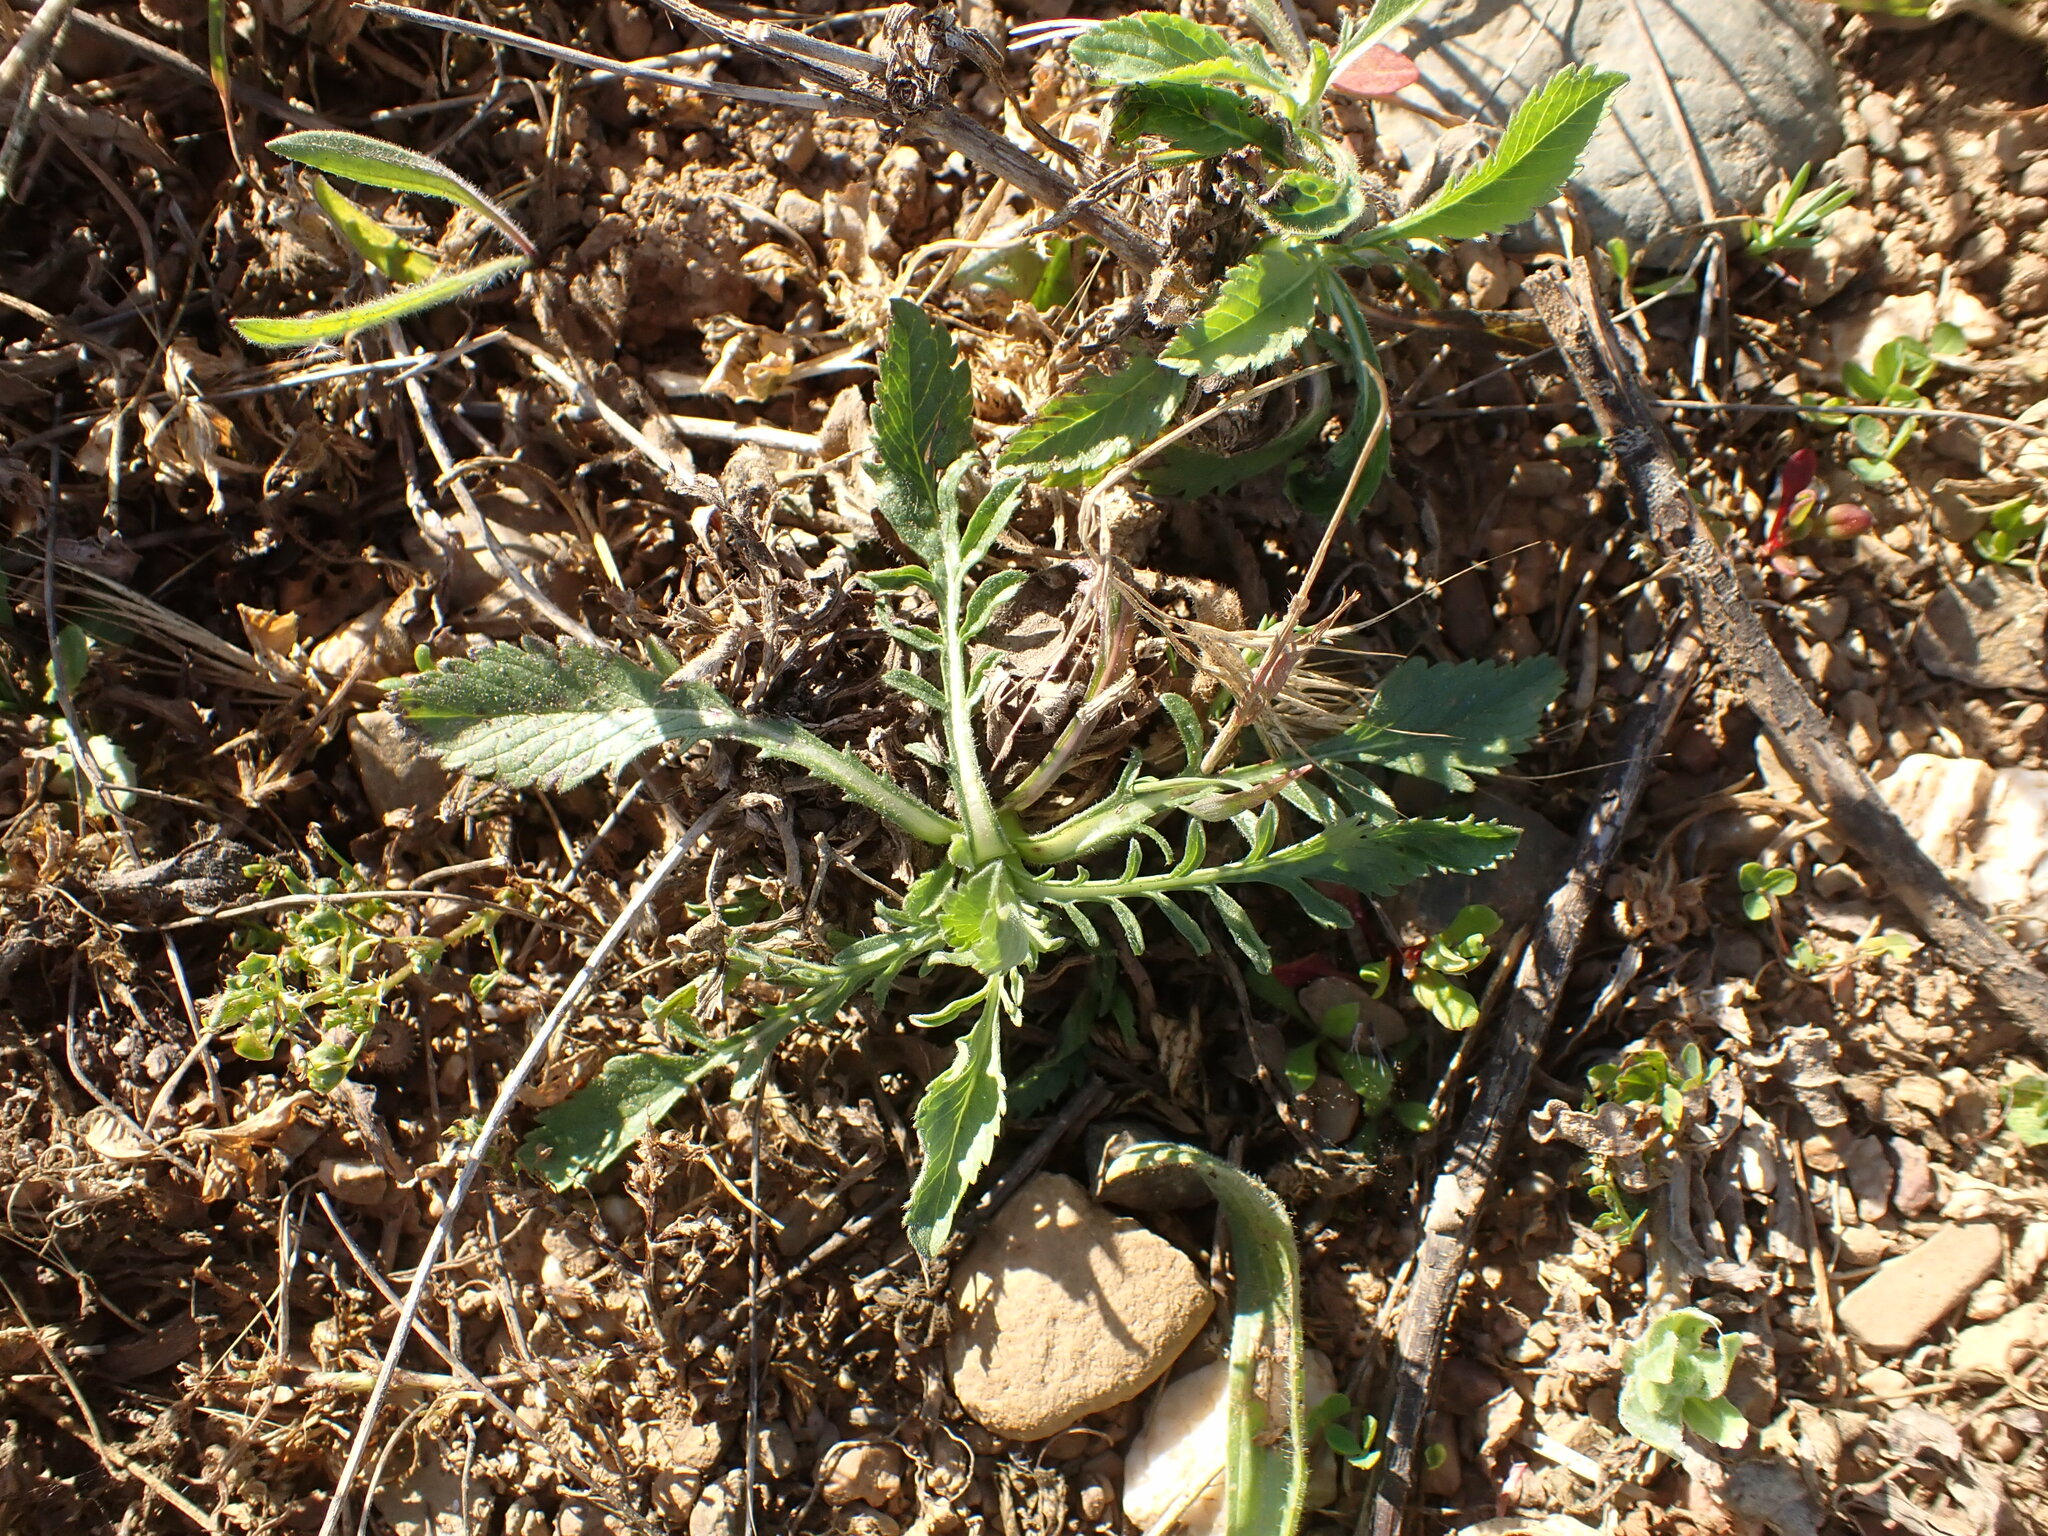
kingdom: Plantae
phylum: Tracheophyta
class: Magnoliopsida
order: Dipsacales
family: Caprifoliaceae
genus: Sixalix
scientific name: Sixalix atropurpurea
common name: Sweet scabious
